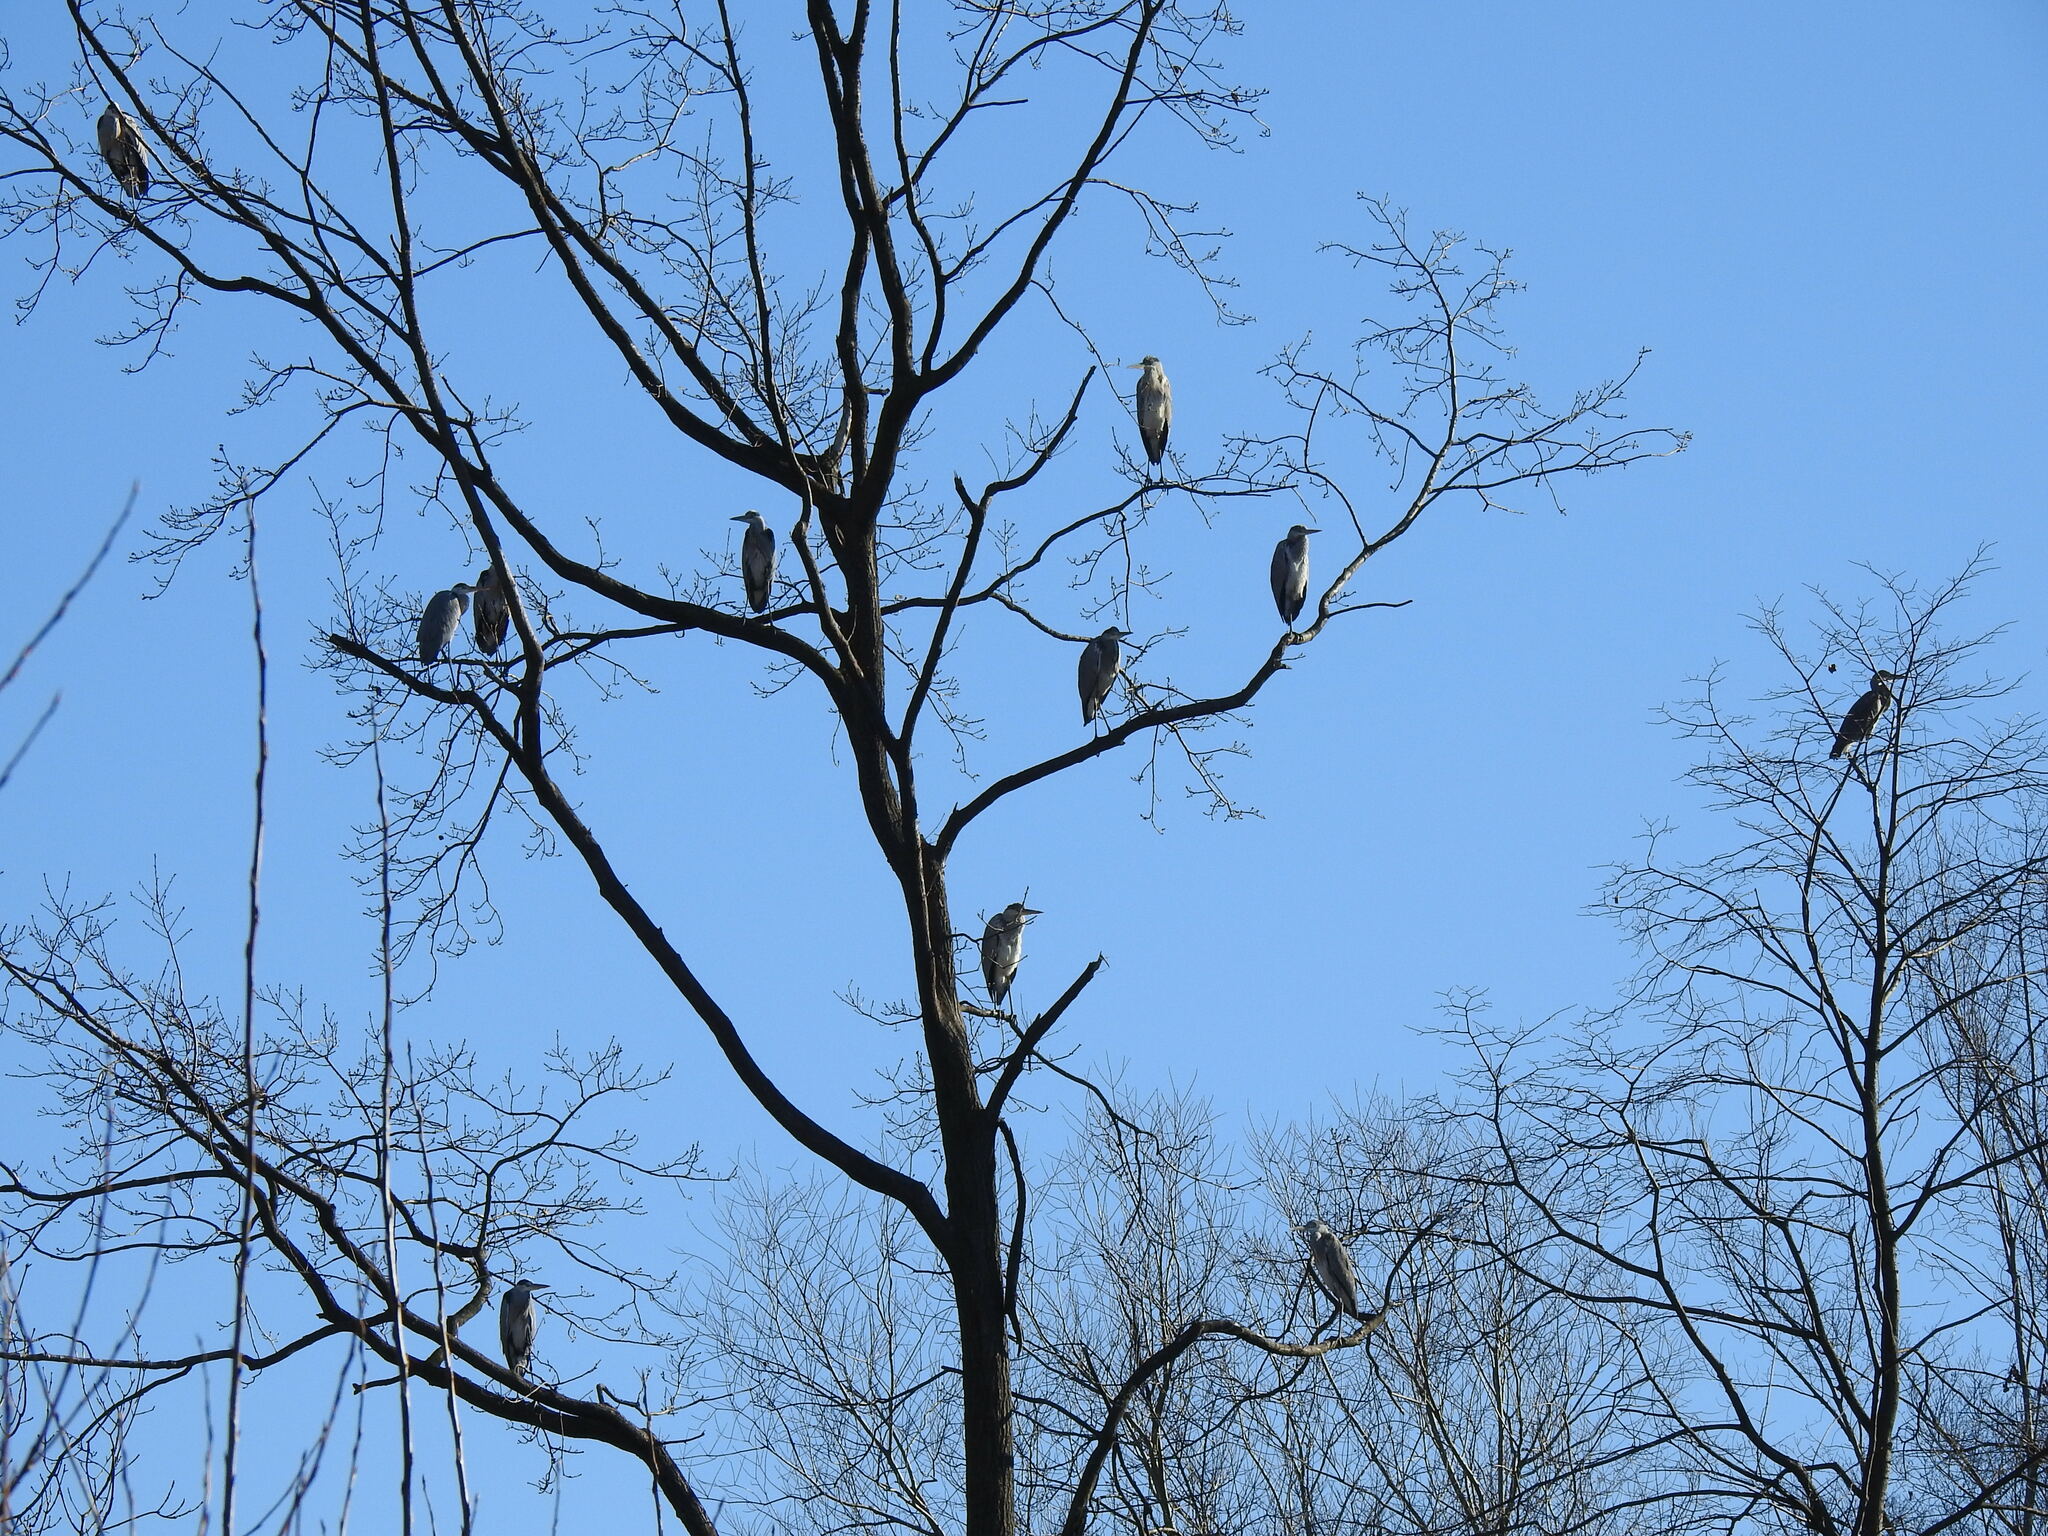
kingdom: Animalia
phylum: Chordata
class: Aves
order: Pelecaniformes
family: Ardeidae
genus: Ardea
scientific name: Ardea cinerea
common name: Grey heron
